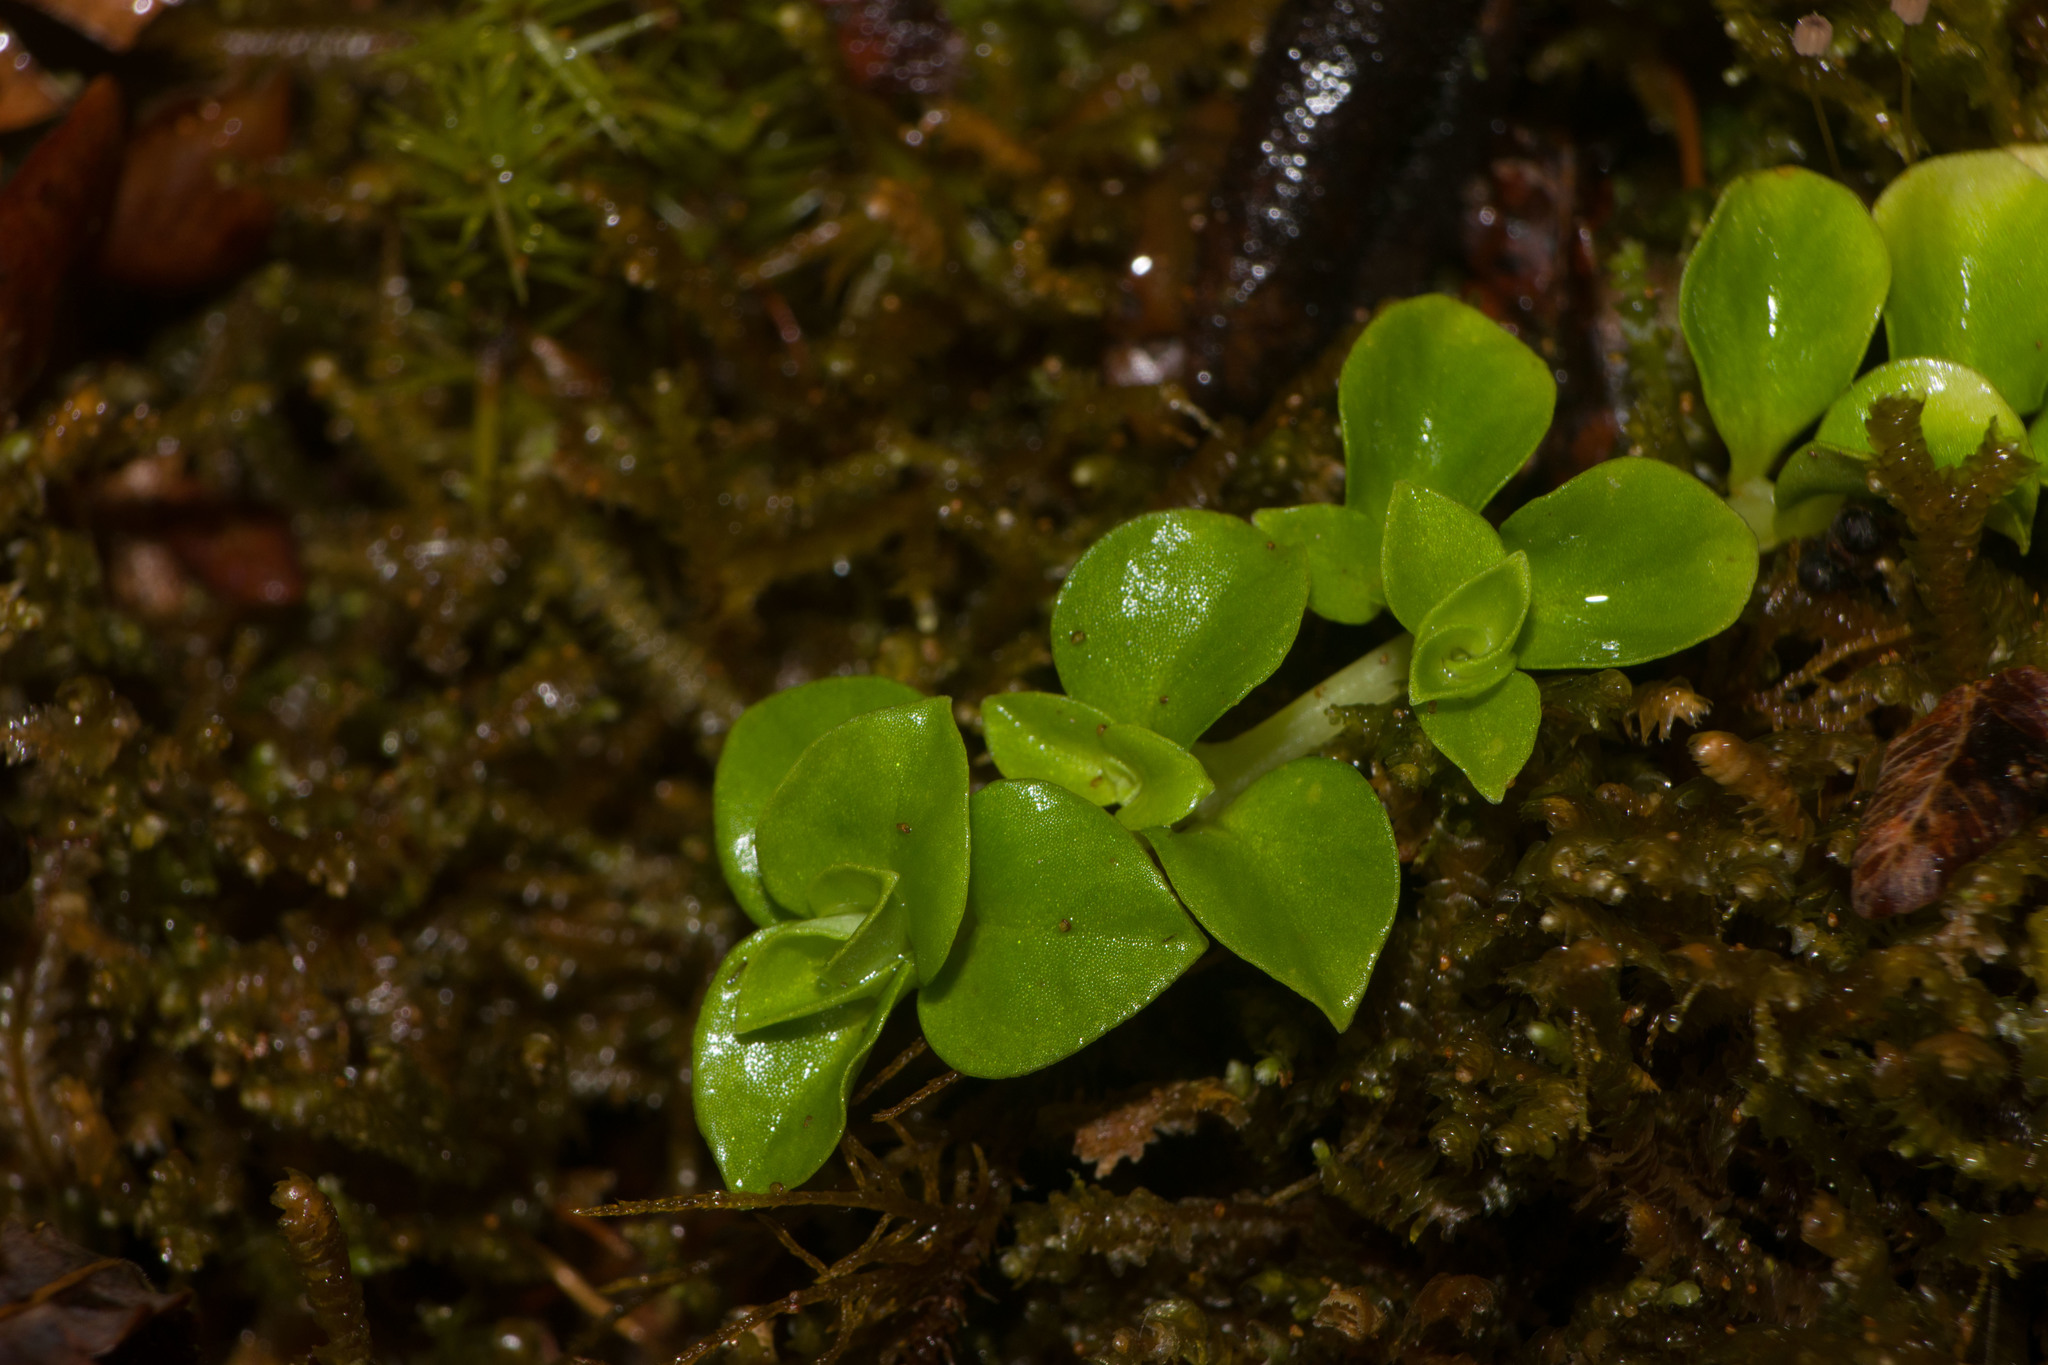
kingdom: Plantae
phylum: Tracheophyta
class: Magnoliopsida
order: Gentianales
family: Rubiaceae
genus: Nertera
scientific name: Nertera granadensis
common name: Beadplant
